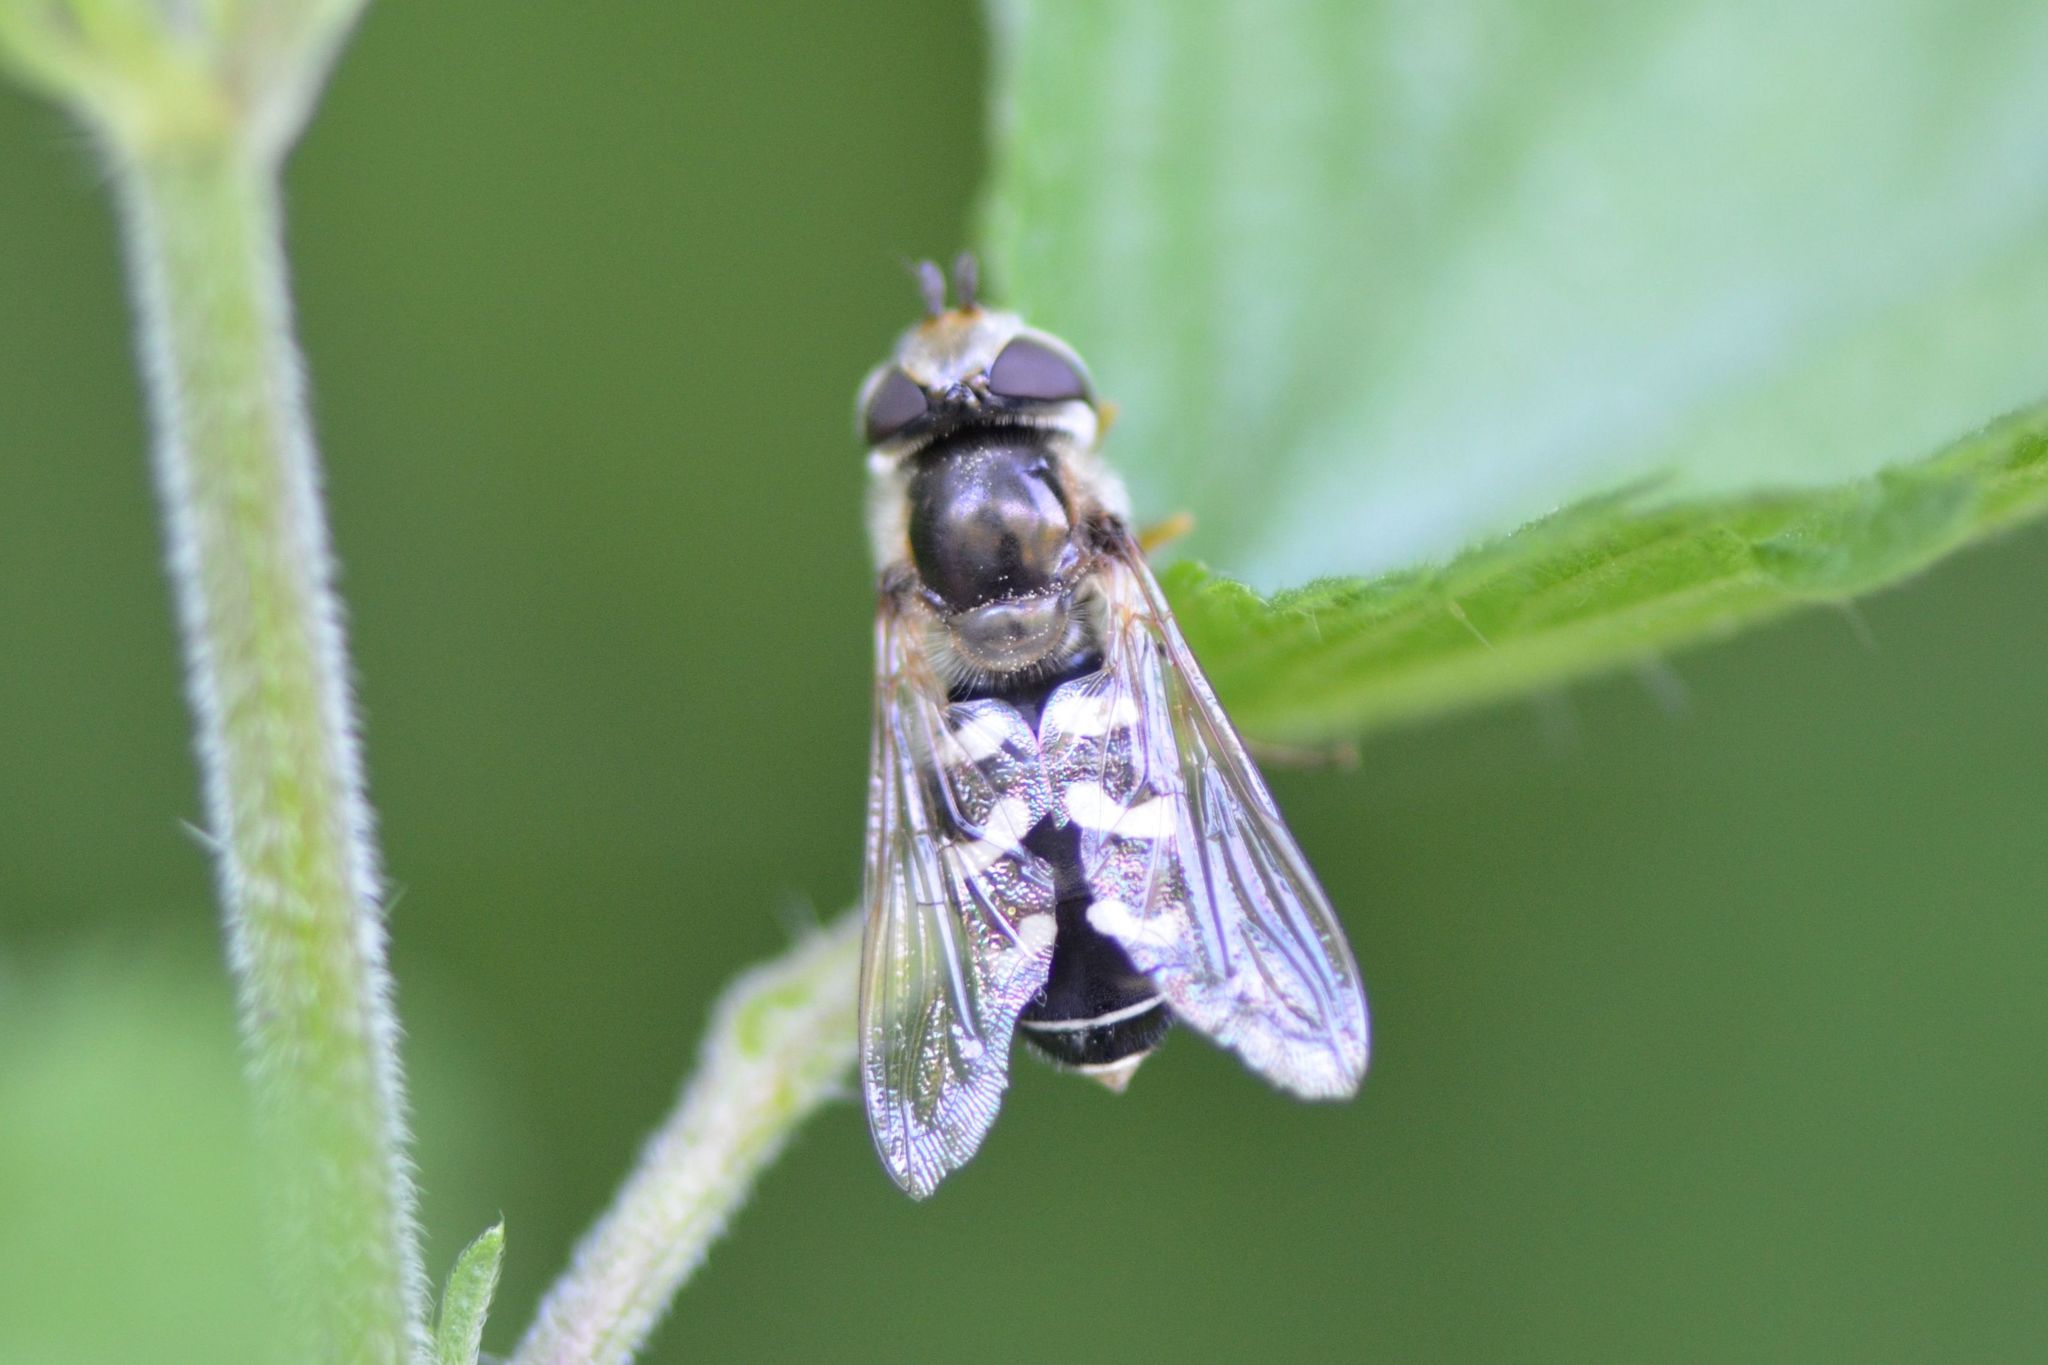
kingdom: Animalia
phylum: Arthropoda
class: Insecta
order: Diptera
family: Syrphidae
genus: Scaeva
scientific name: Scaeva pyrastri
